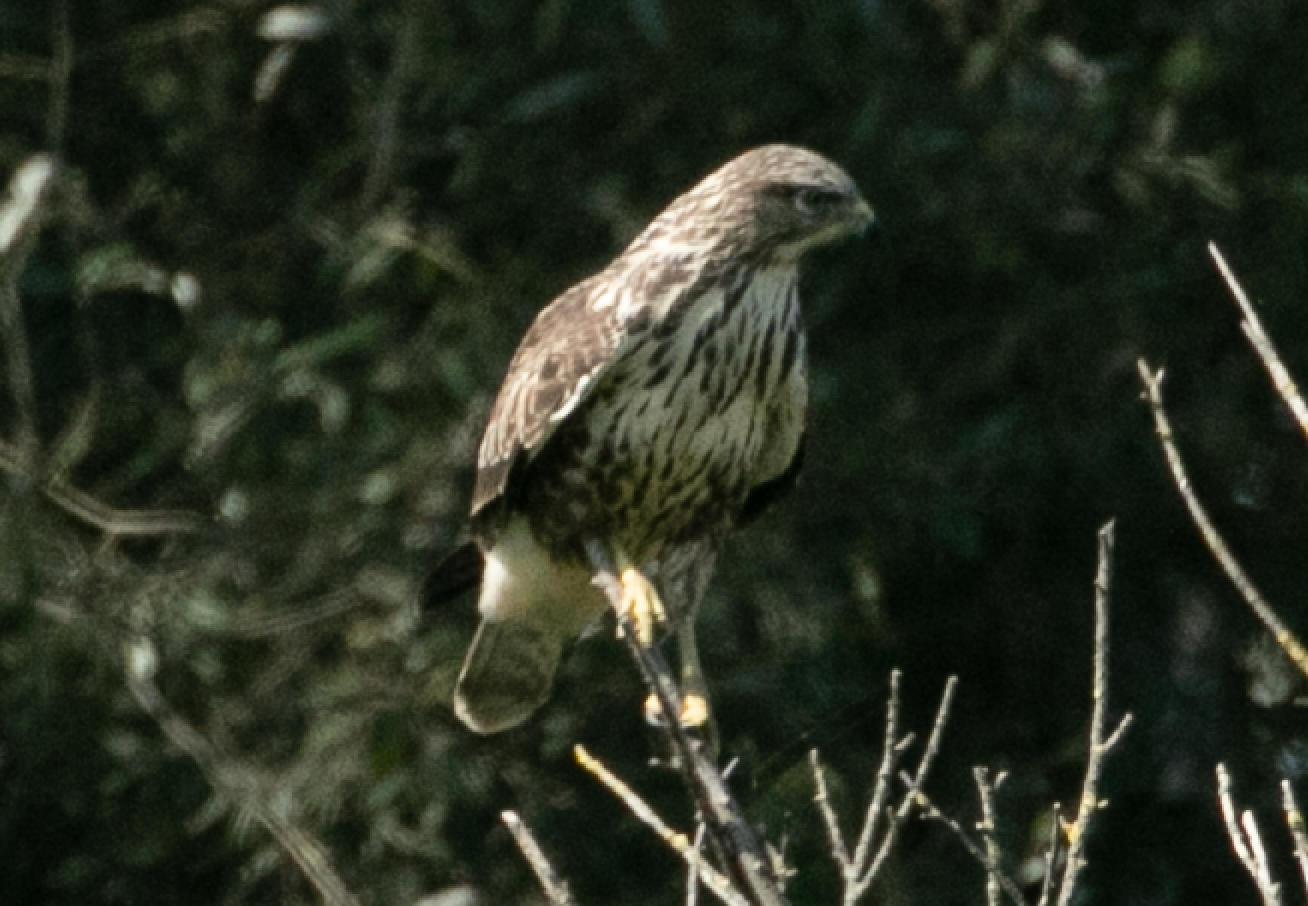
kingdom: Animalia
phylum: Chordata
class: Aves
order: Accipitriformes
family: Accipitridae
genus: Buteo
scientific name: Buteo buteo
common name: Common buzzard
